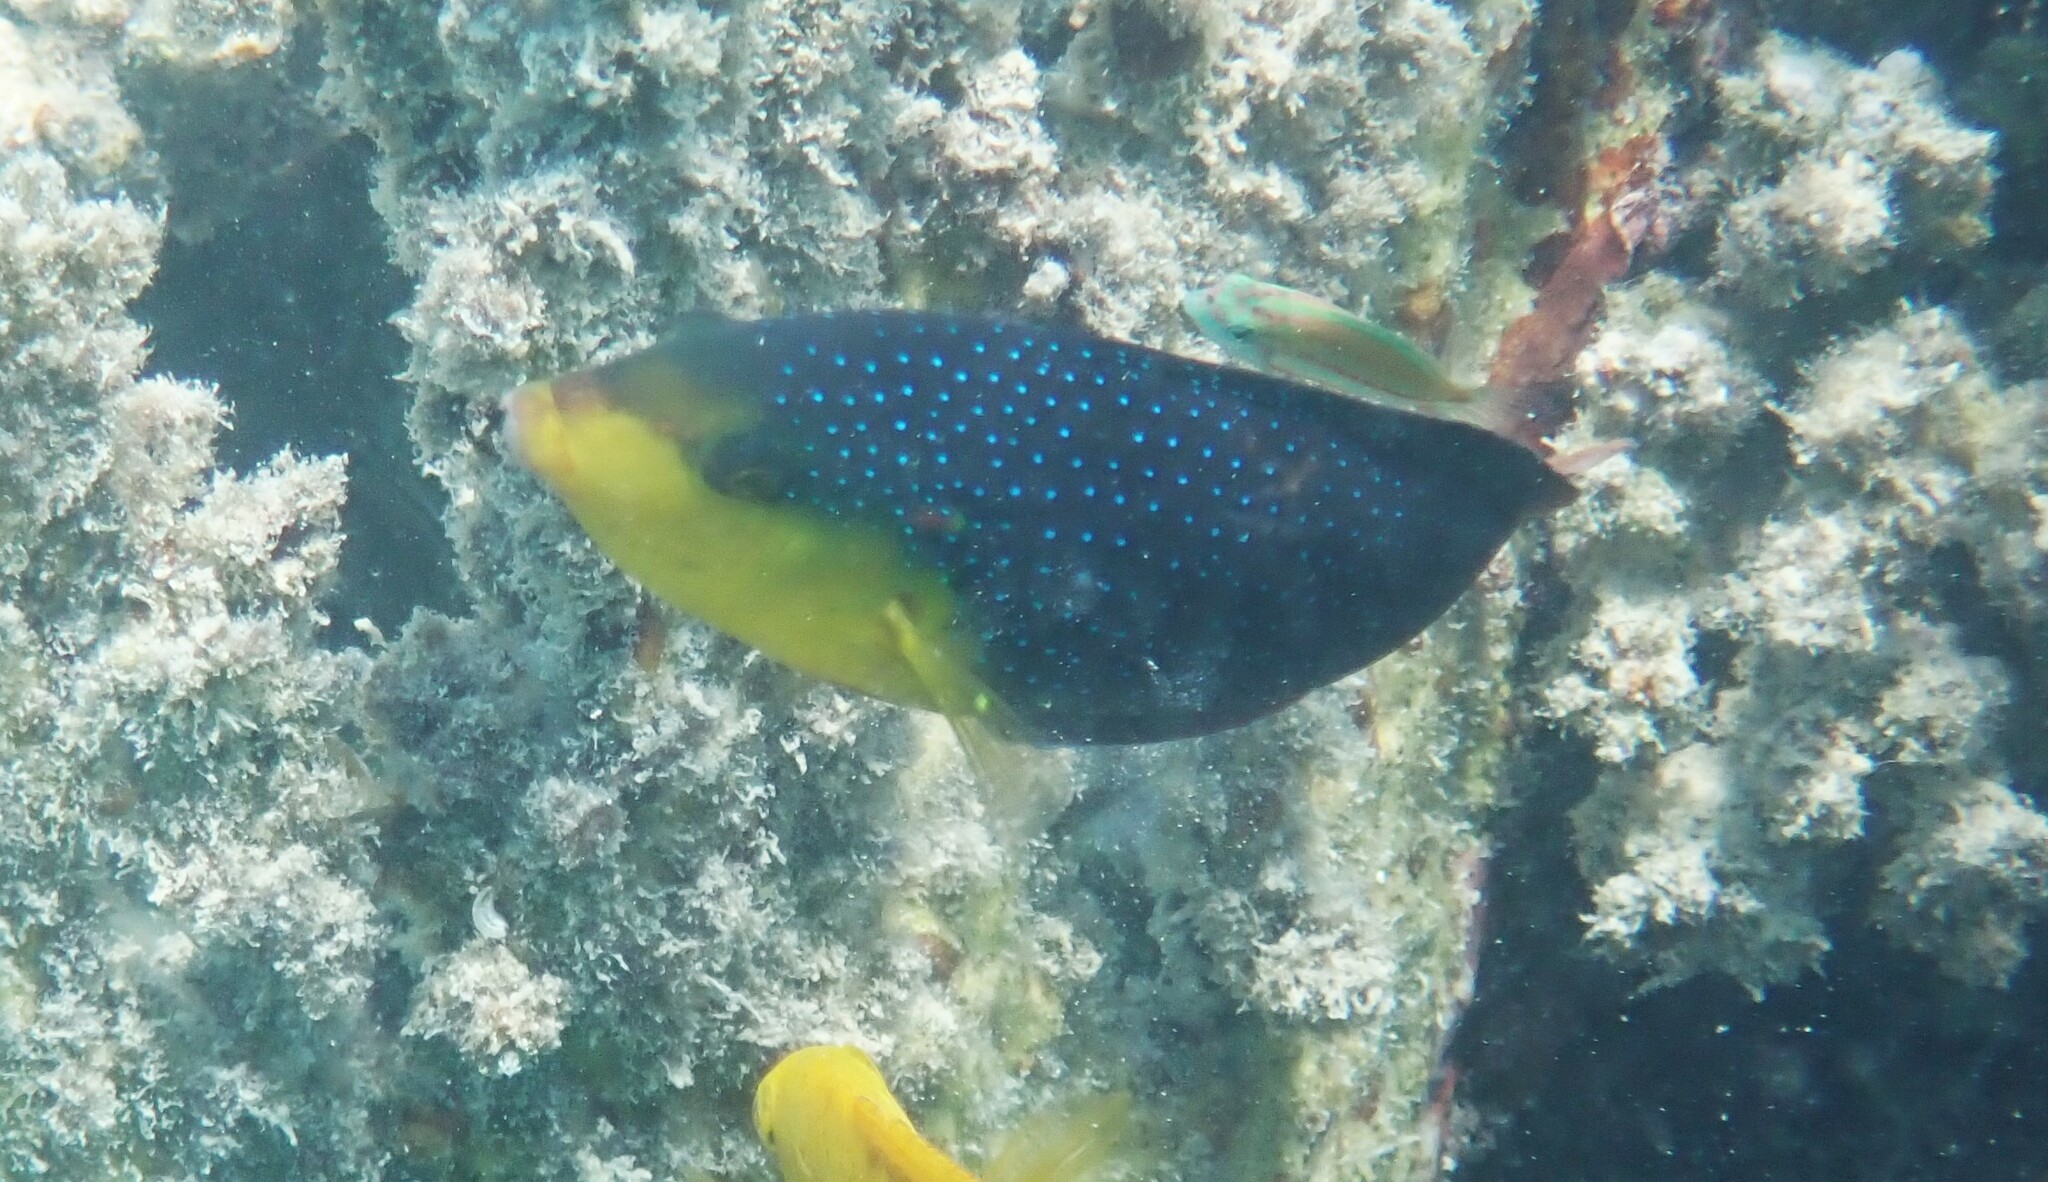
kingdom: Animalia
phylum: Chordata
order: Perciformes
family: Labridae
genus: Anampses
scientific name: Anampses twistii
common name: Yellowbreasted wrasse
